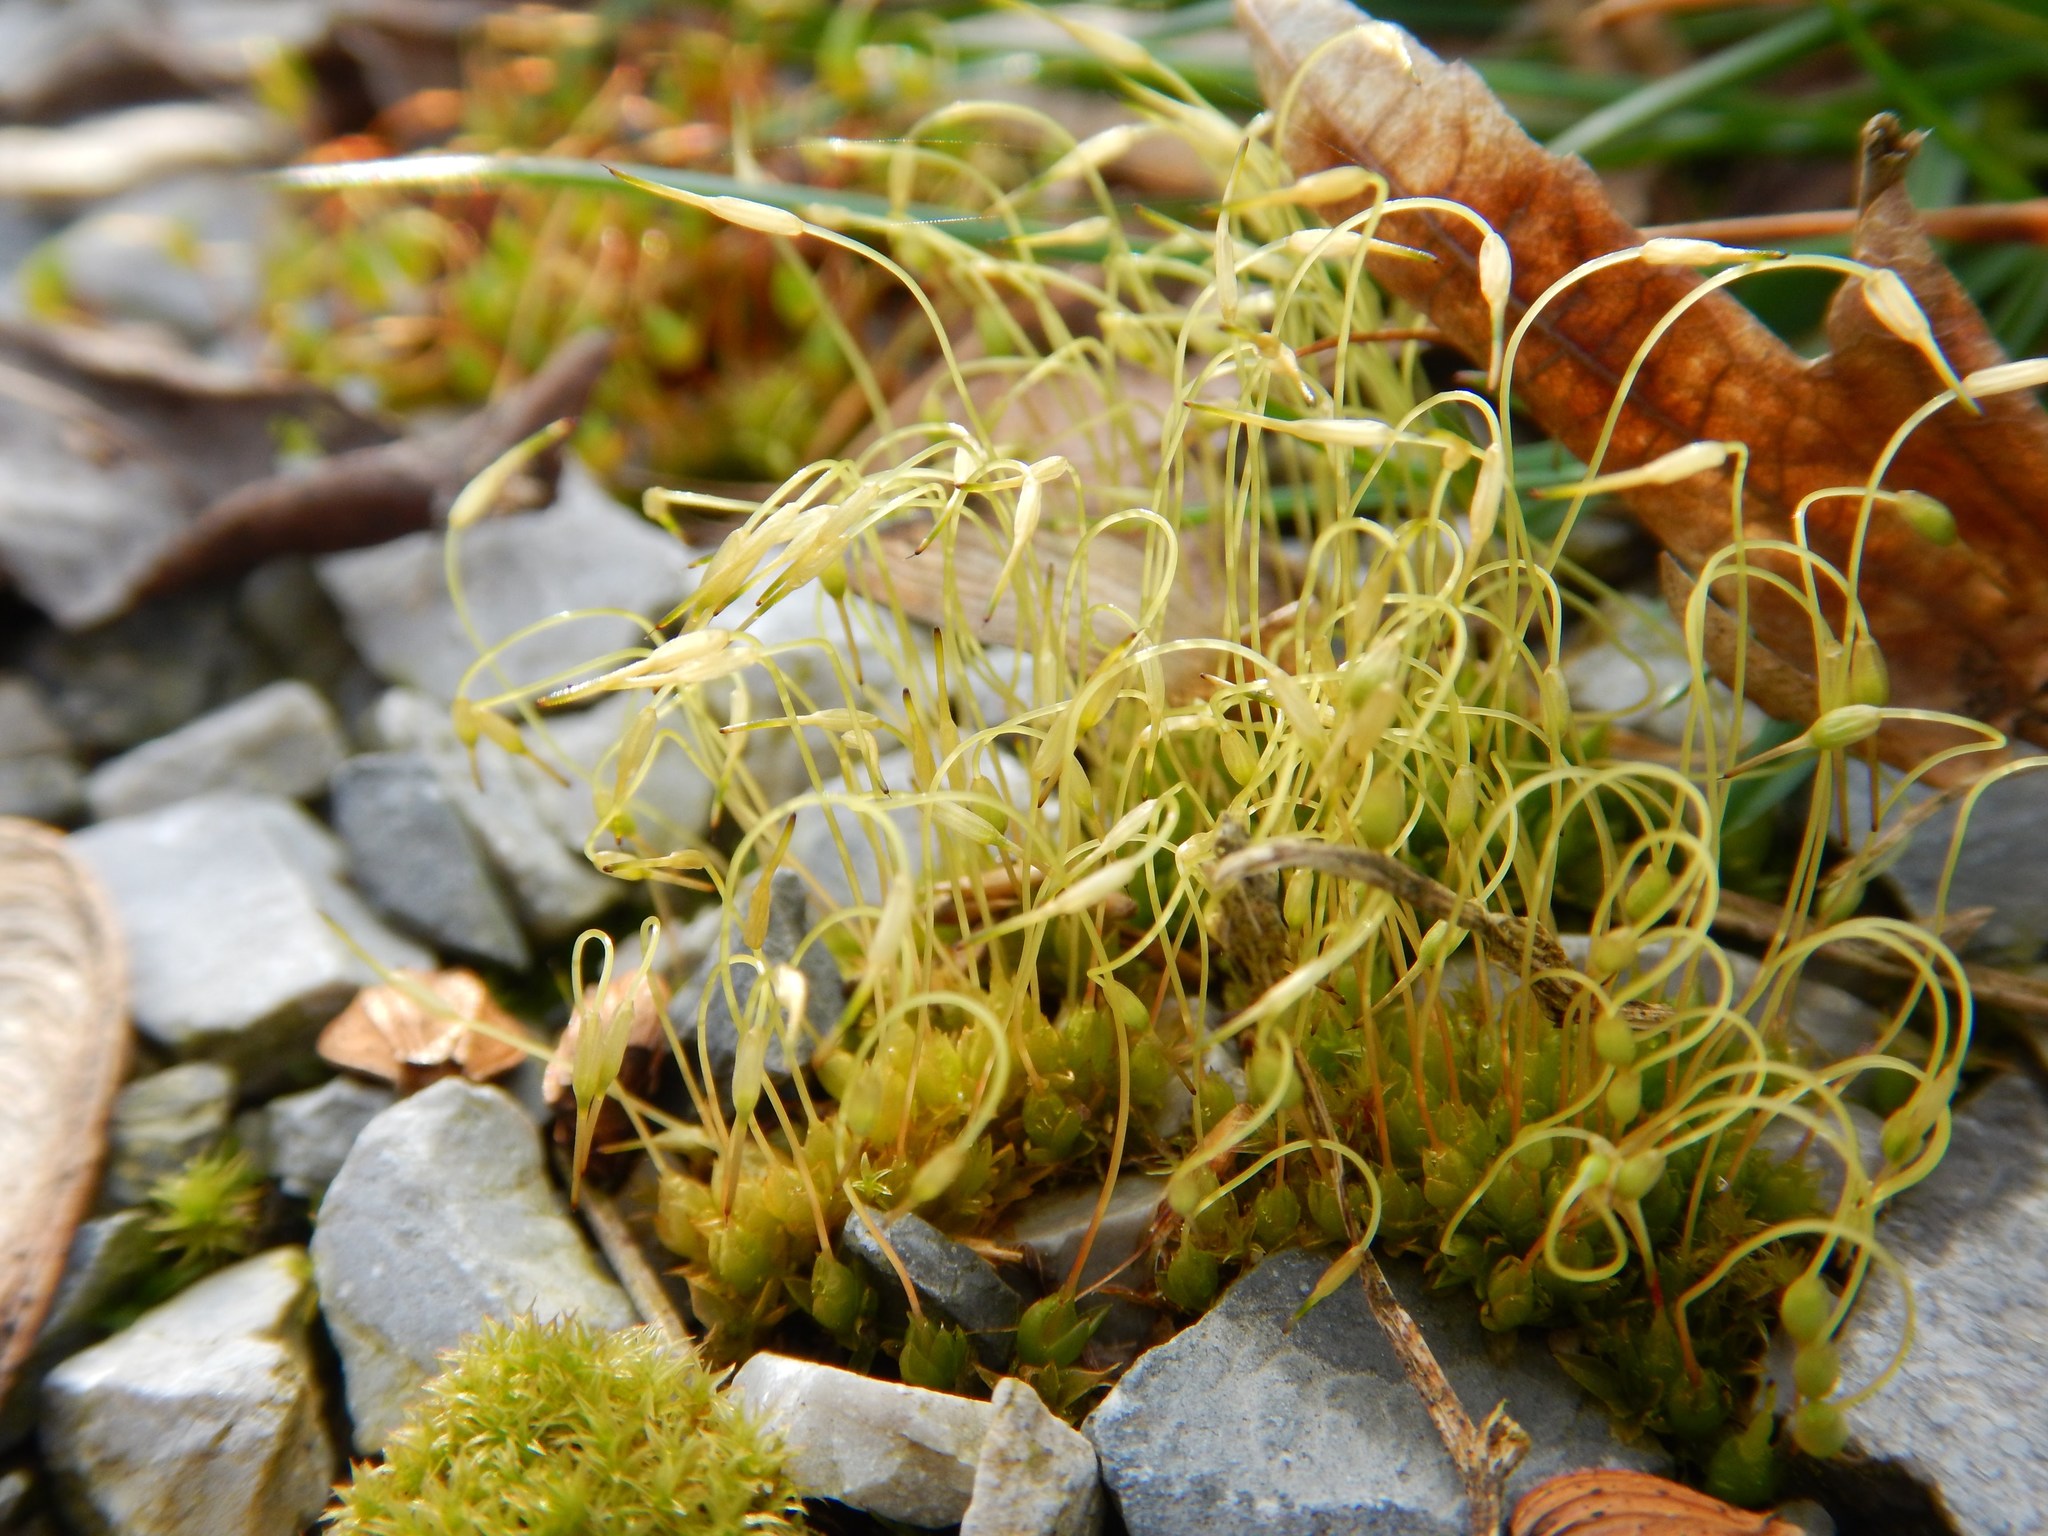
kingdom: Plantae
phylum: Bryophyta
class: Bryopsida
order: Funariales
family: Funariaceae
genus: Funaria
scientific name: Funaria hygrometrica
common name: Common cord moss
